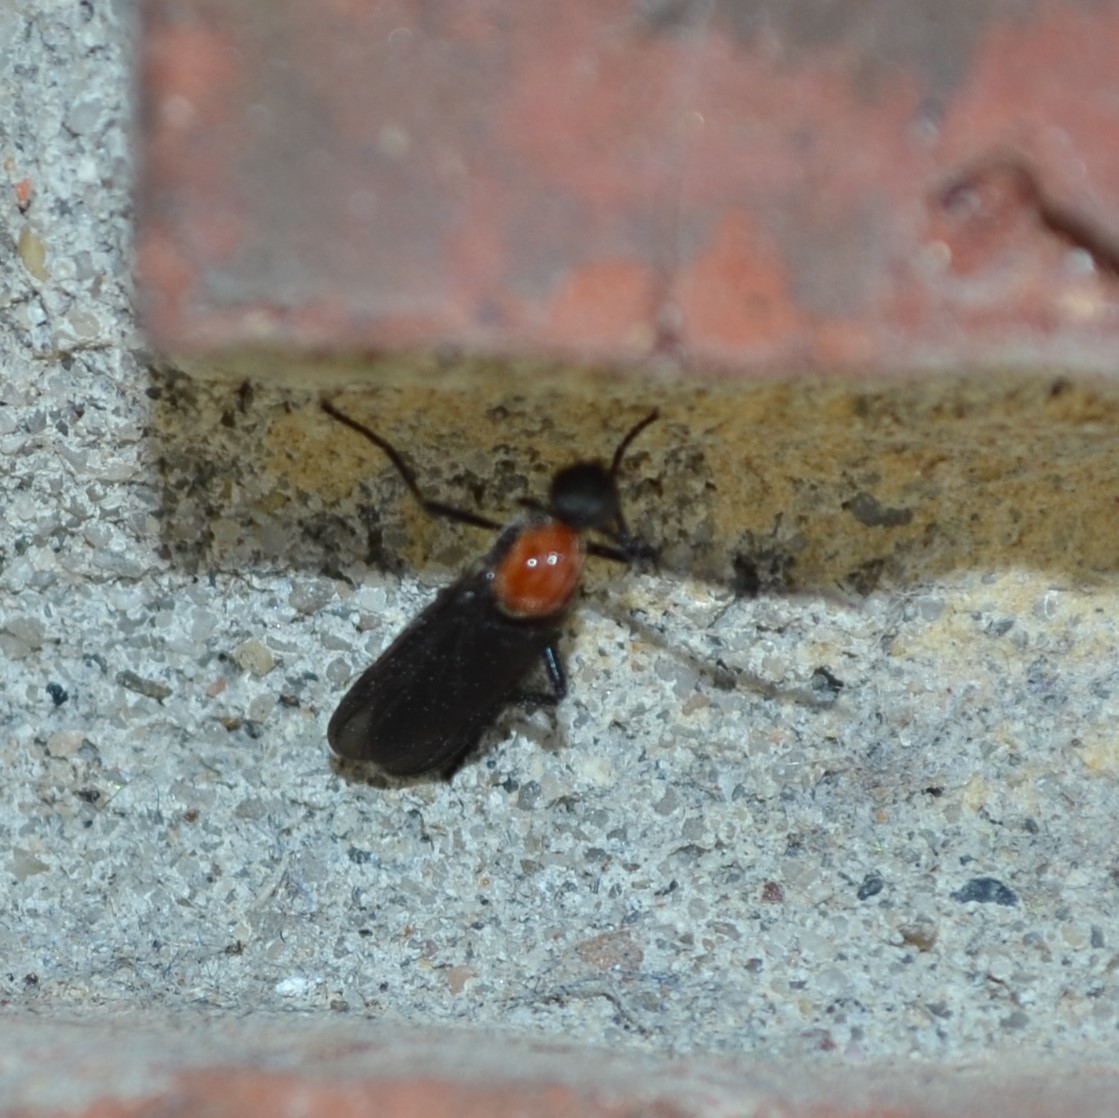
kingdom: Animalia
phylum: Arthropoda
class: Insecta
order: Diptera
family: Bibionidae
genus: Plecia
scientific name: Plecia nearctica
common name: March fly
